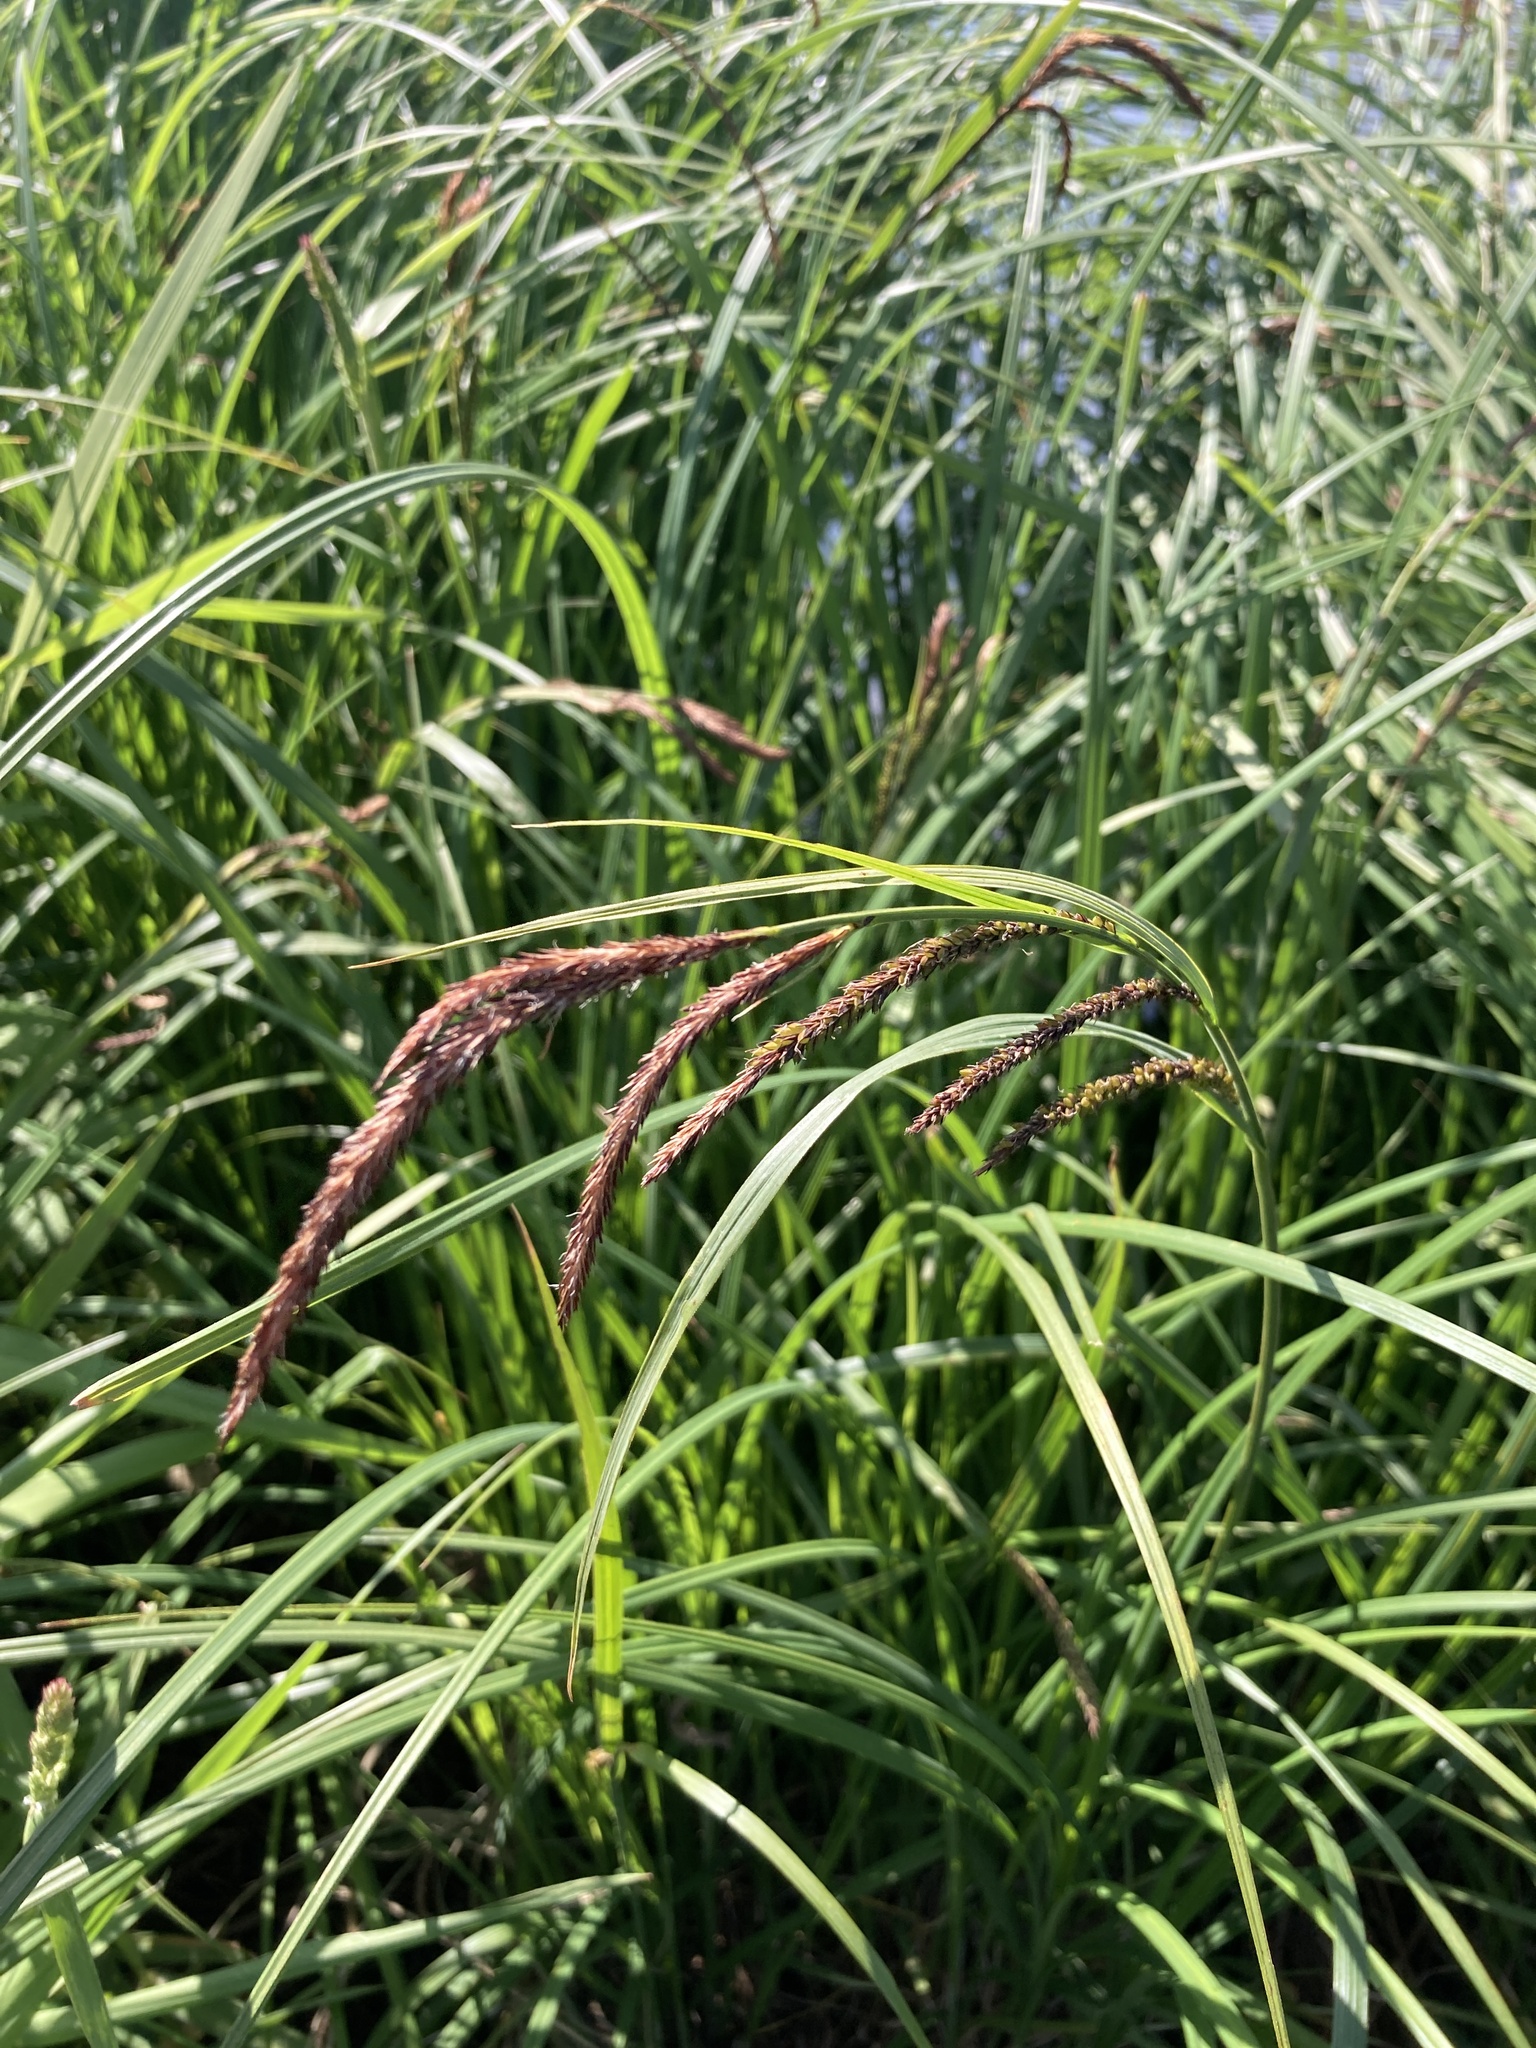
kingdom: Plantae
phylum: Tracheophyta
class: Liliopsida
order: Poales
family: Cyperaceae
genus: Carex
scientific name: Carex acuta
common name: Slender tufted-sedge
